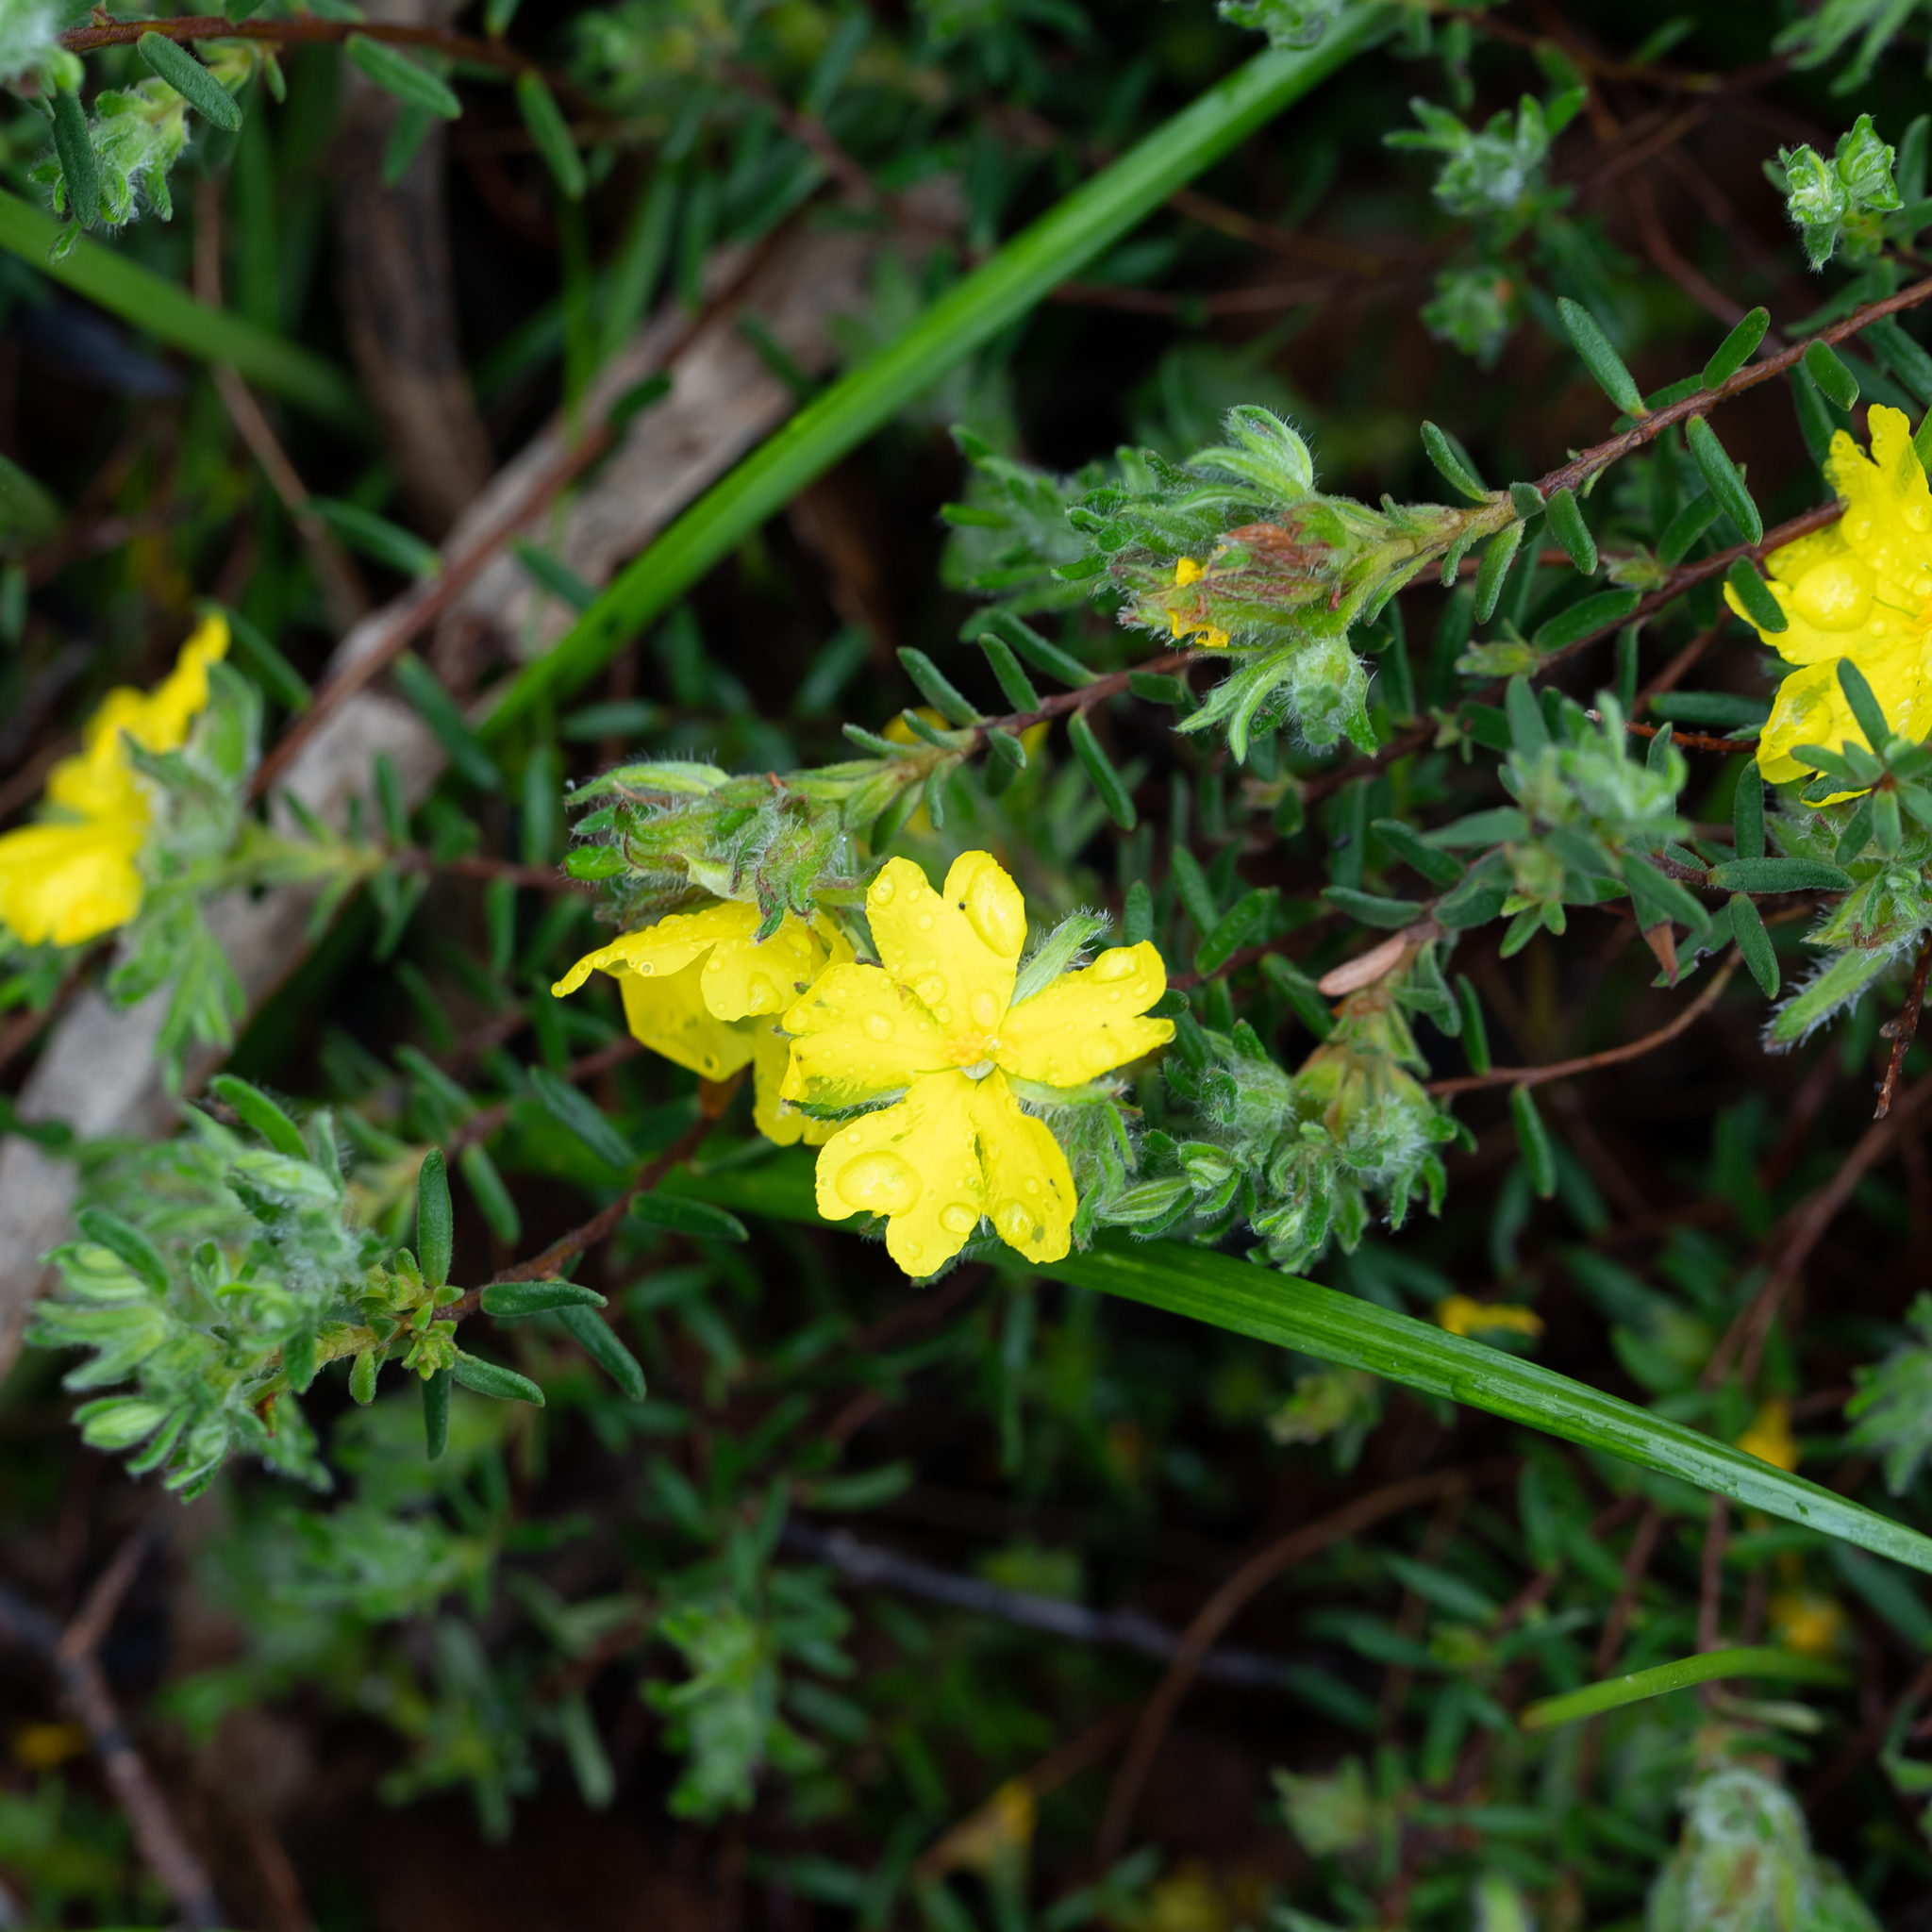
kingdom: Plantae
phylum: Tracheophyta
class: Magnoliopsida
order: Dilleniales
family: Dilleniaceae
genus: Hibbertia
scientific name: Hibbertia crinita
